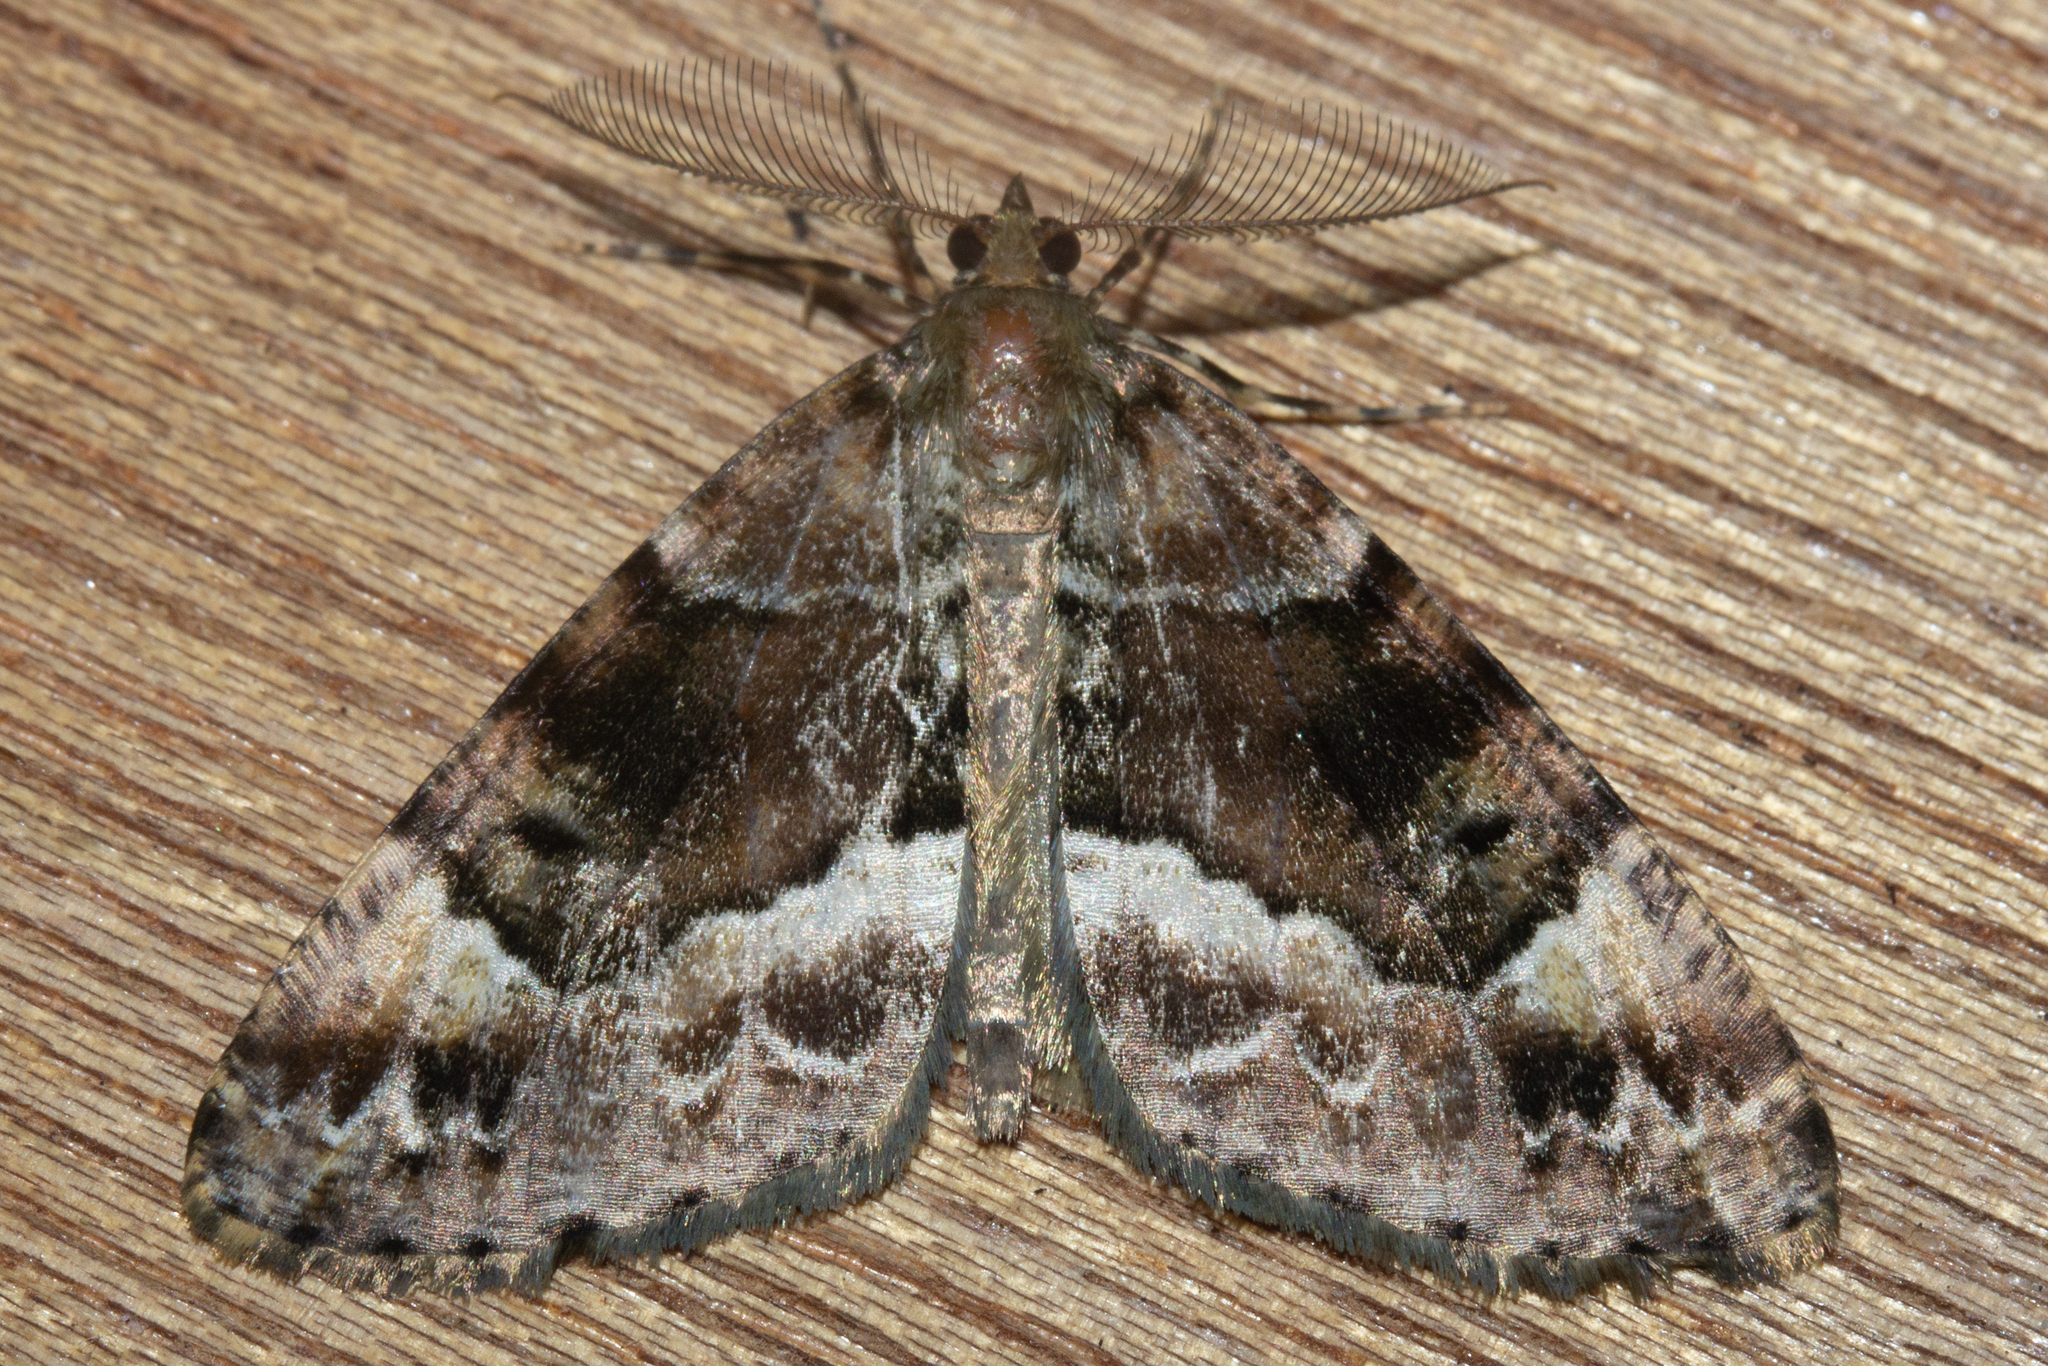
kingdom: Animalia
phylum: Arthropoda
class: Insecta
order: Lepidoptera
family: Geometridae
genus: Pseudocoremia
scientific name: Pseudocoremia productata
